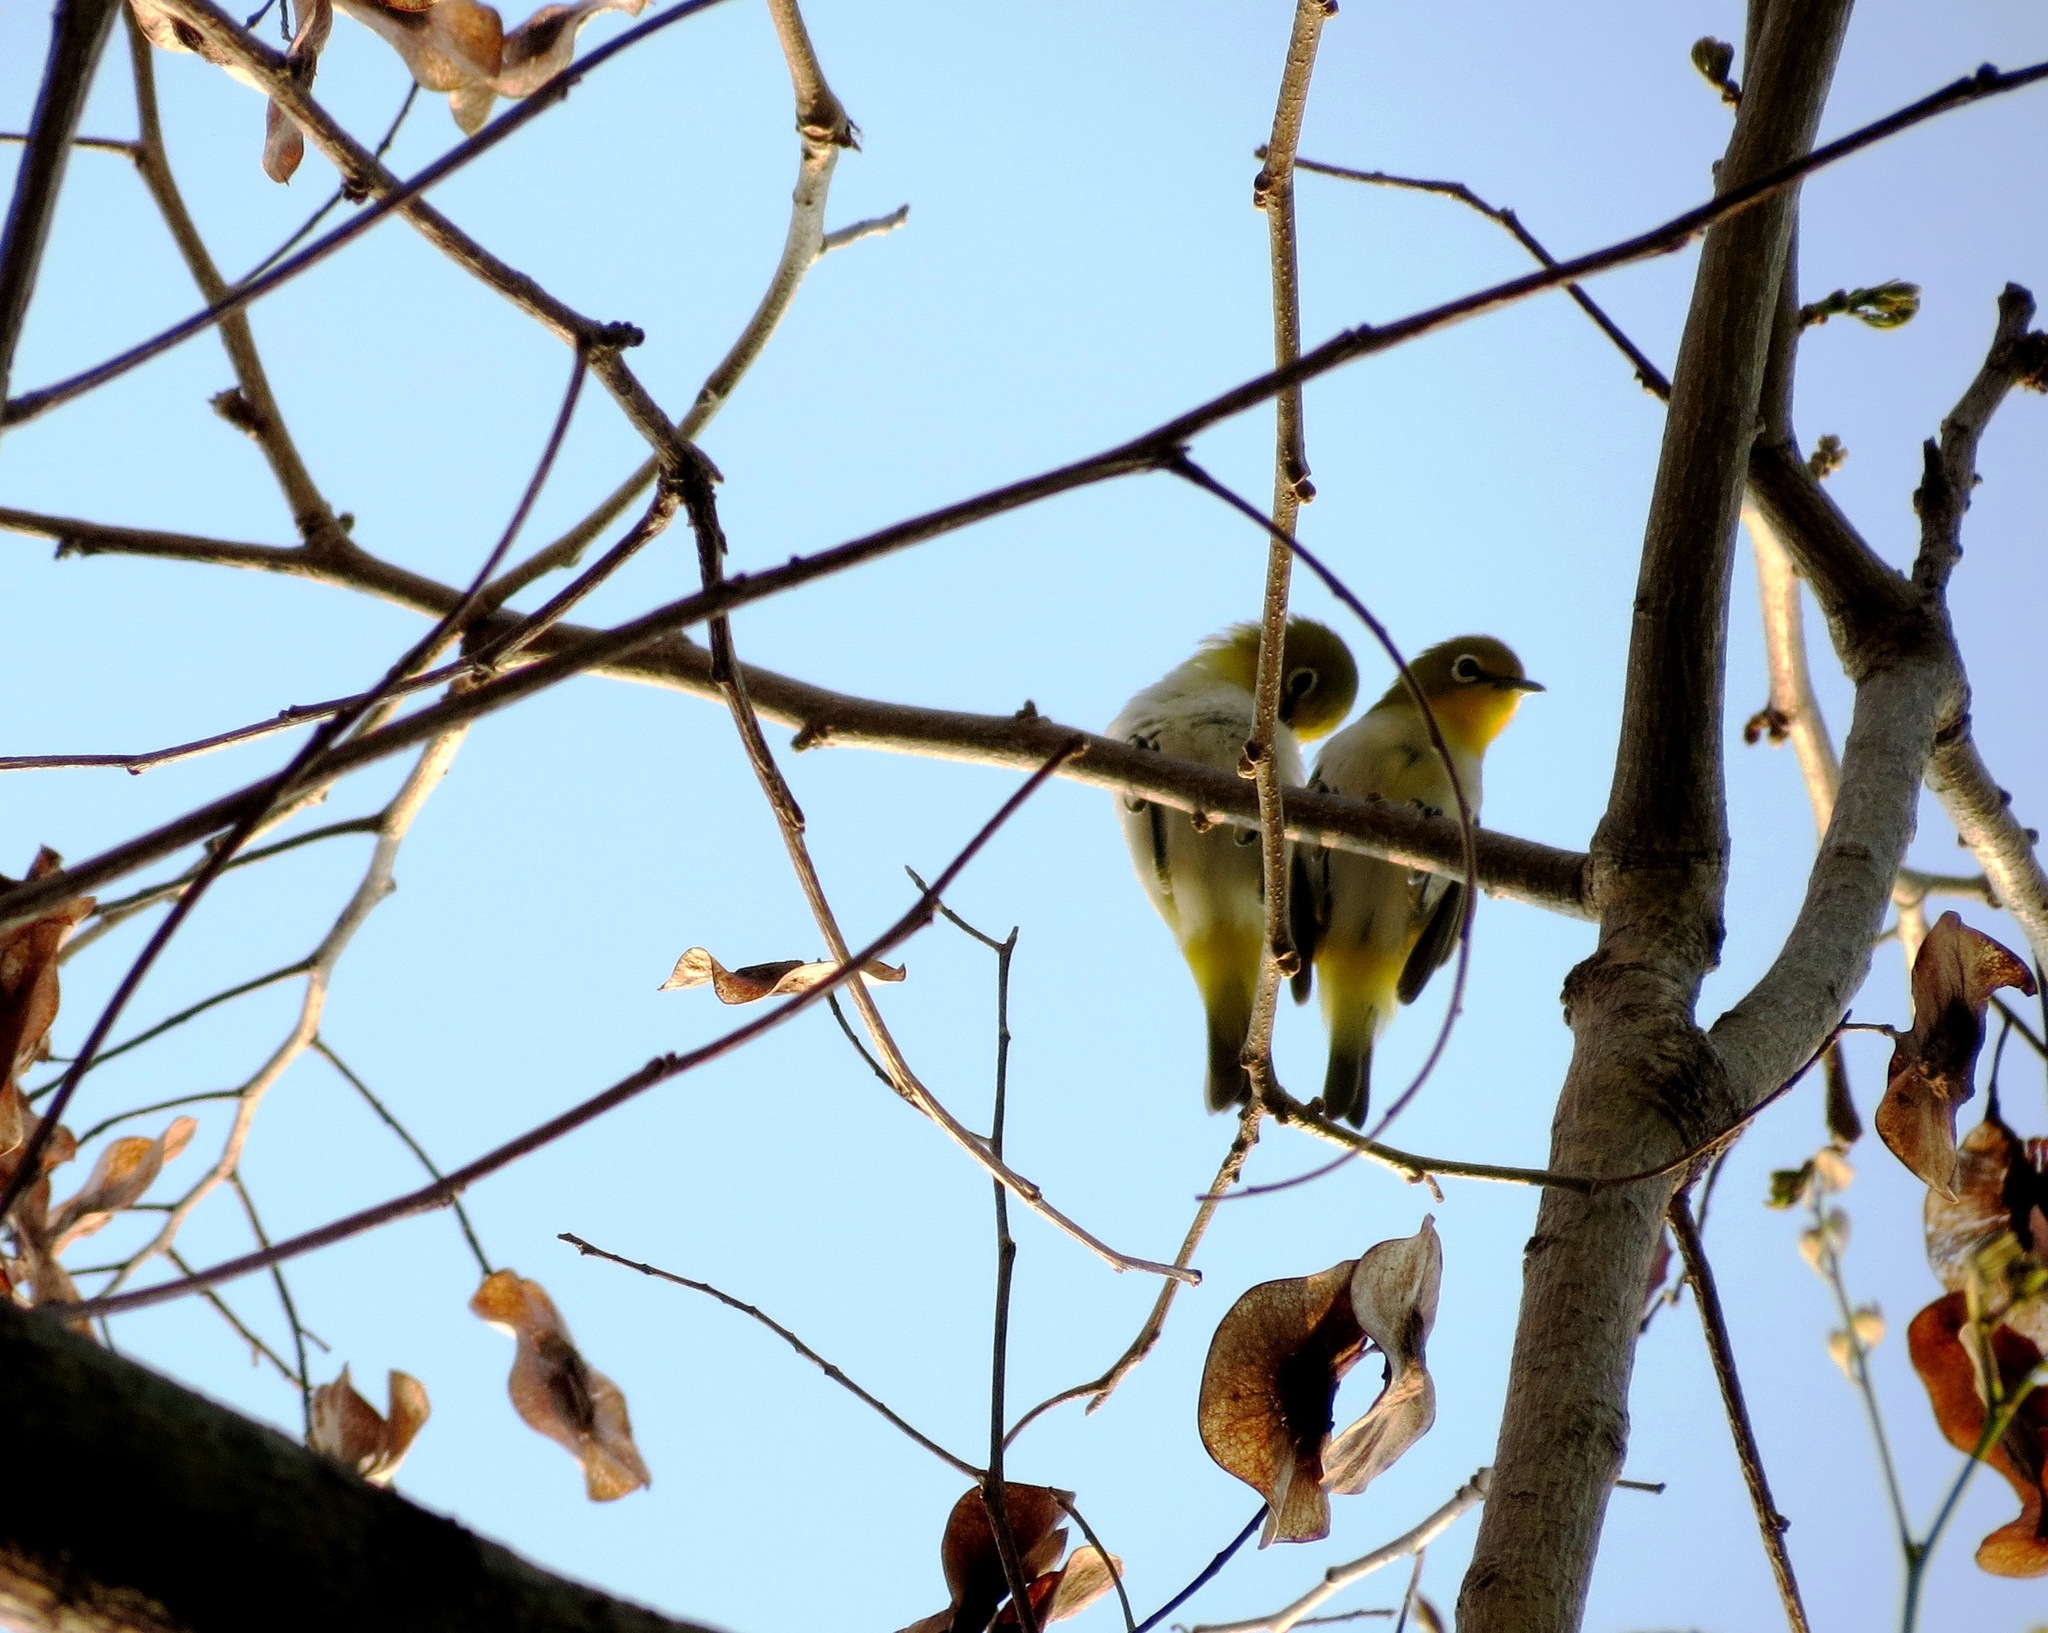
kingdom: Animalia
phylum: Chordata
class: Aves
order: Passeriformes
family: Zosteropidae
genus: Zosterops
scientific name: Zosterops meyeni
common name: Lowland white-eye
